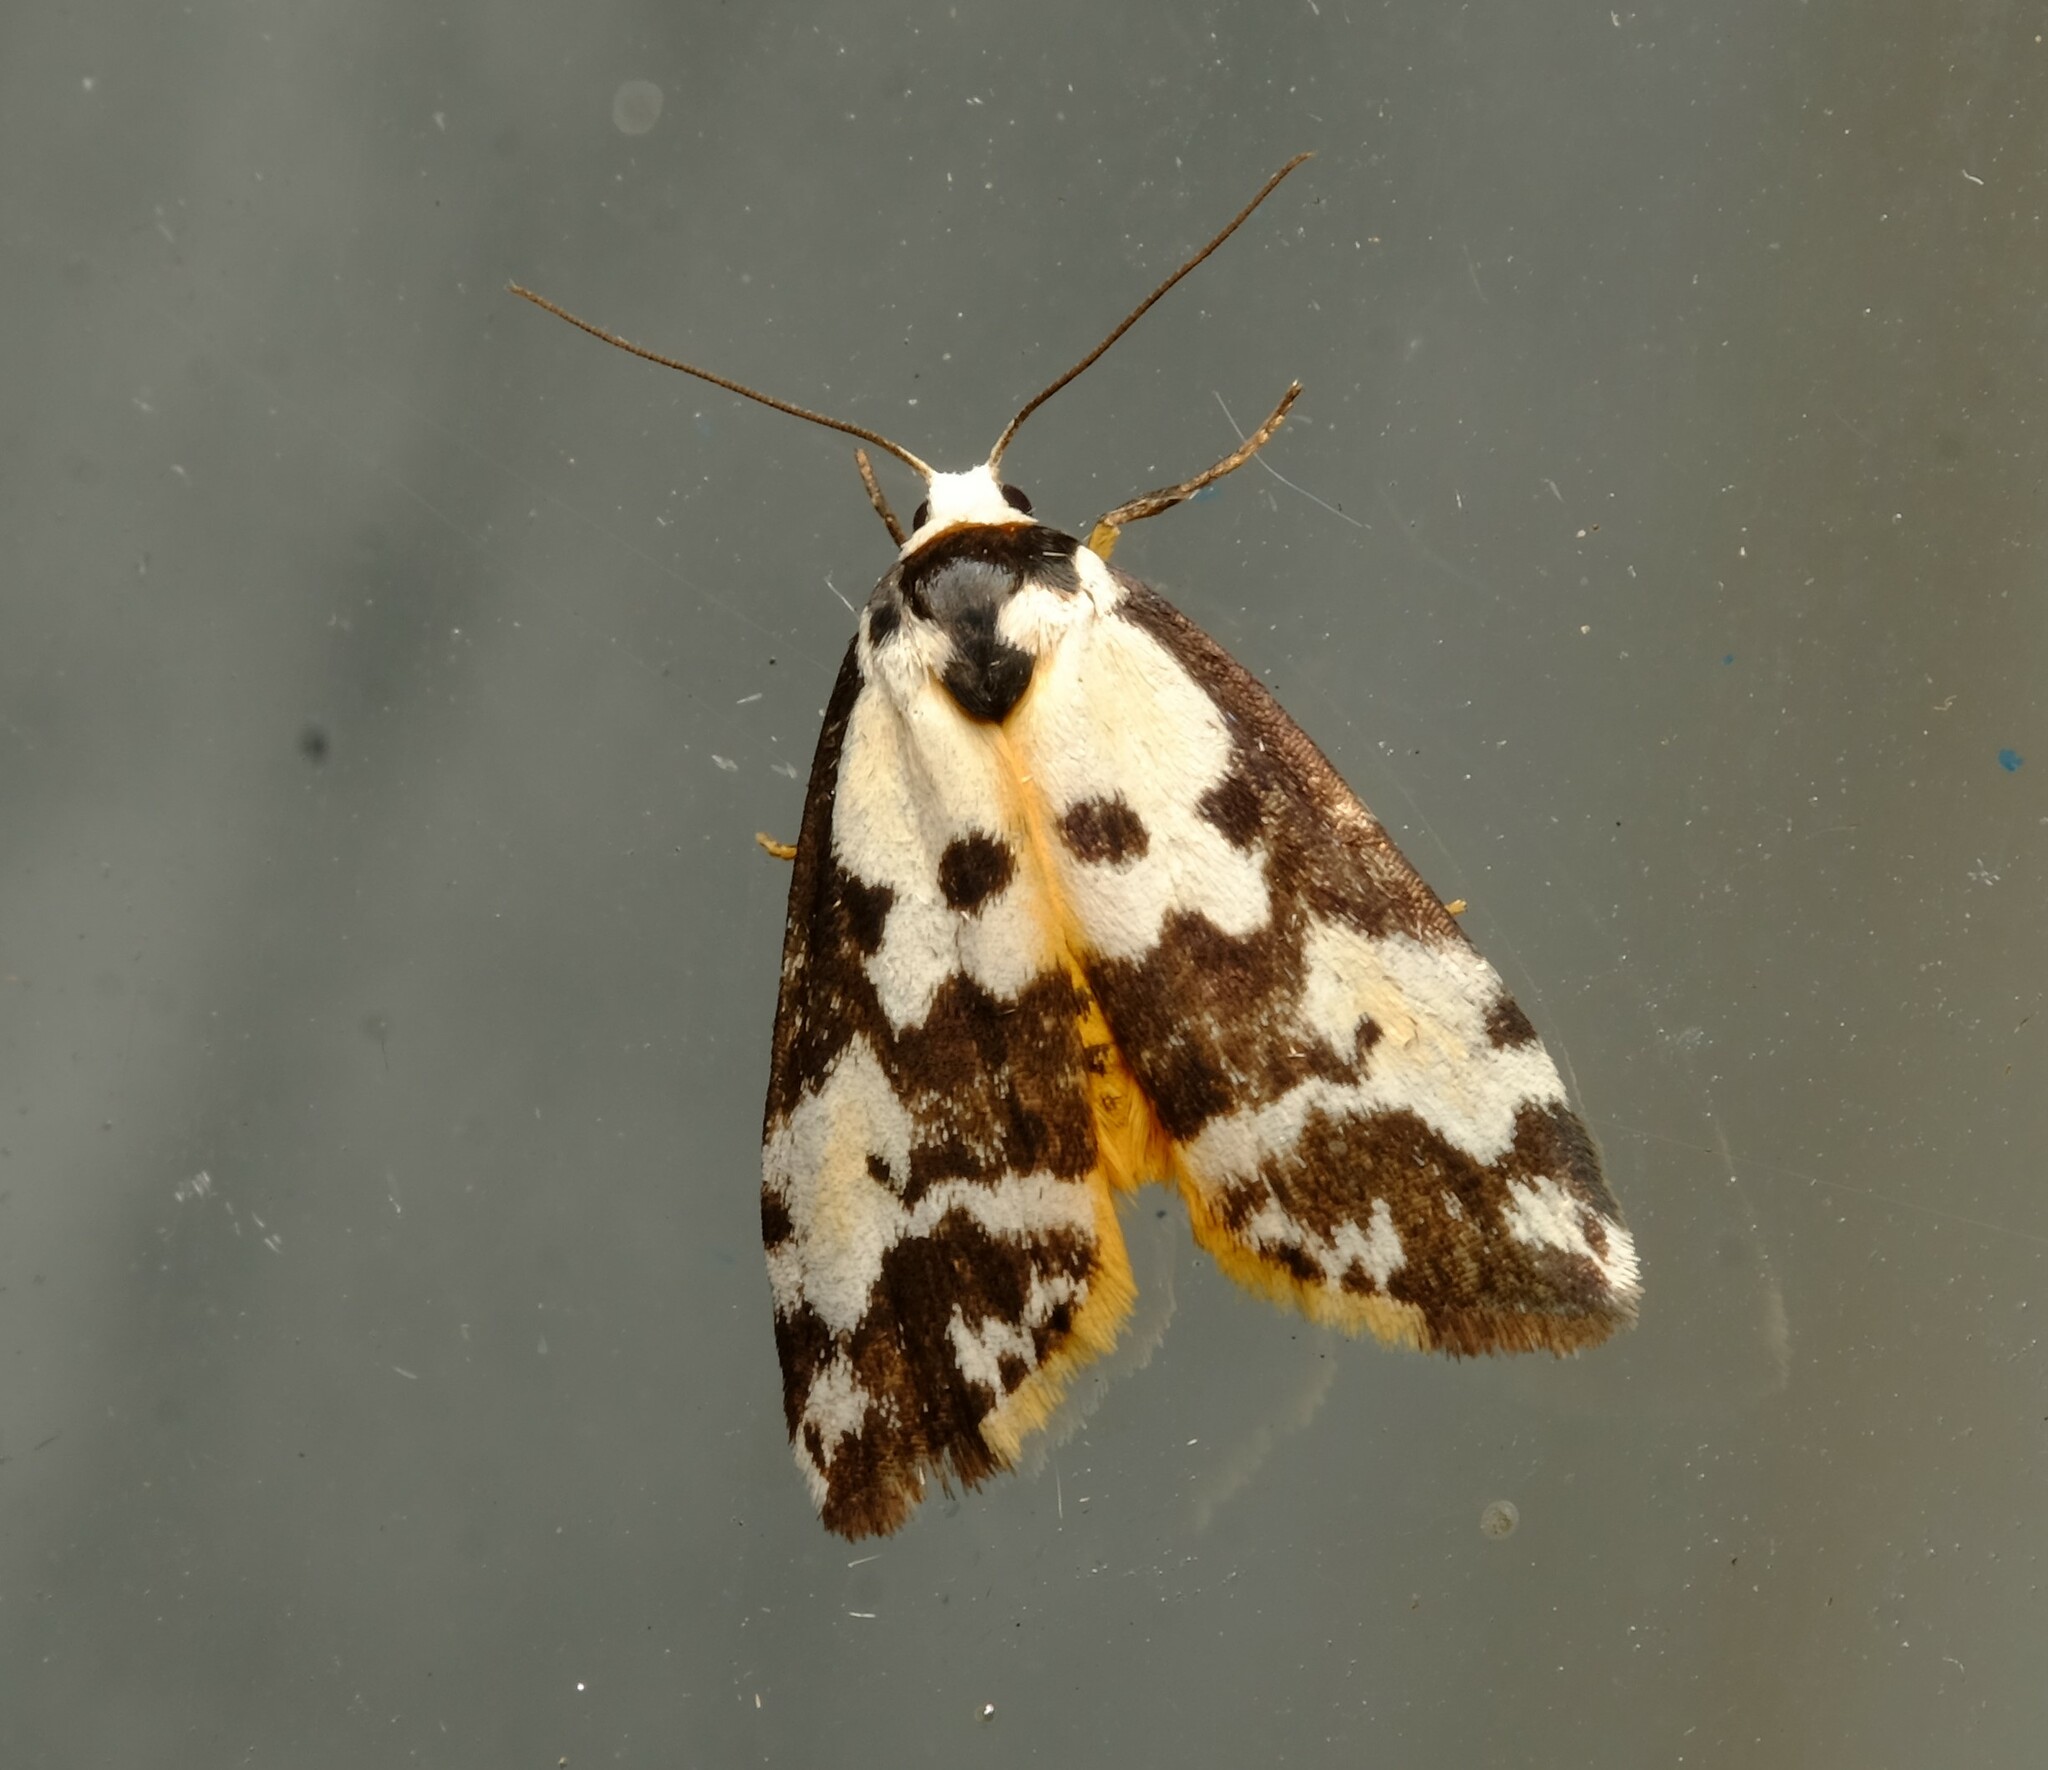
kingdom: Animalia
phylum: Arthropoda
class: Insecta
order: Lepidoptera
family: Erebidae
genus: Thallarcha
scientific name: Thallarcha pellax
